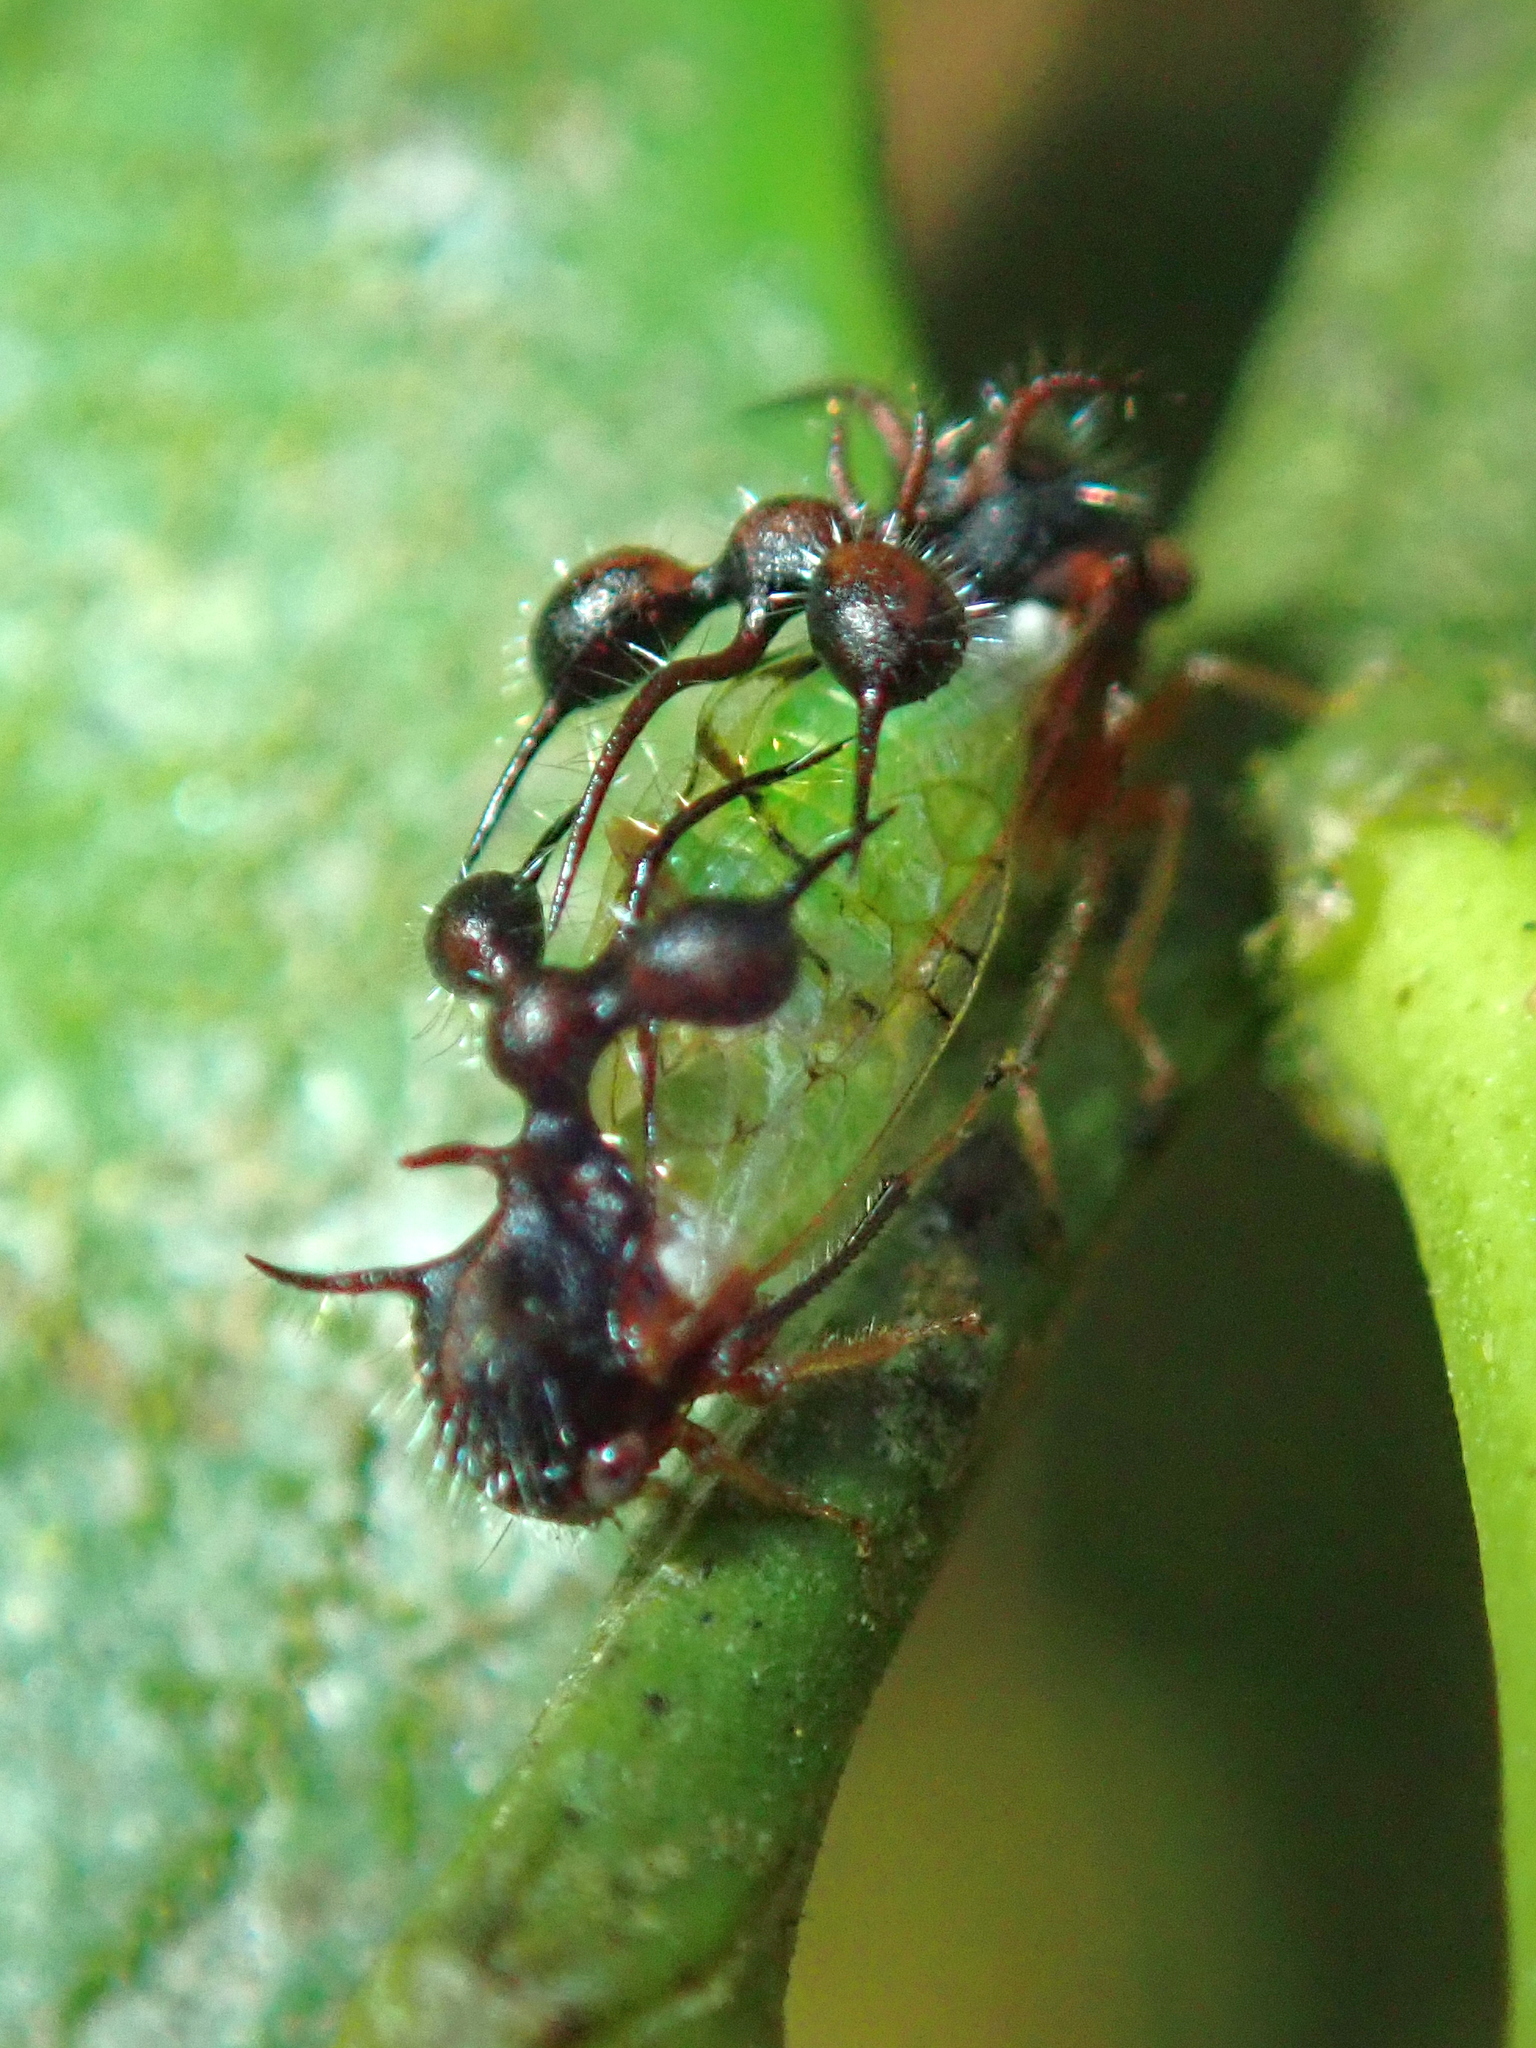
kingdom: Animalia
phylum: Arthropoda
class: Insecta
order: Hemiptera
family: Membracidae
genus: Cyphonia
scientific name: Cyphonia clavata
